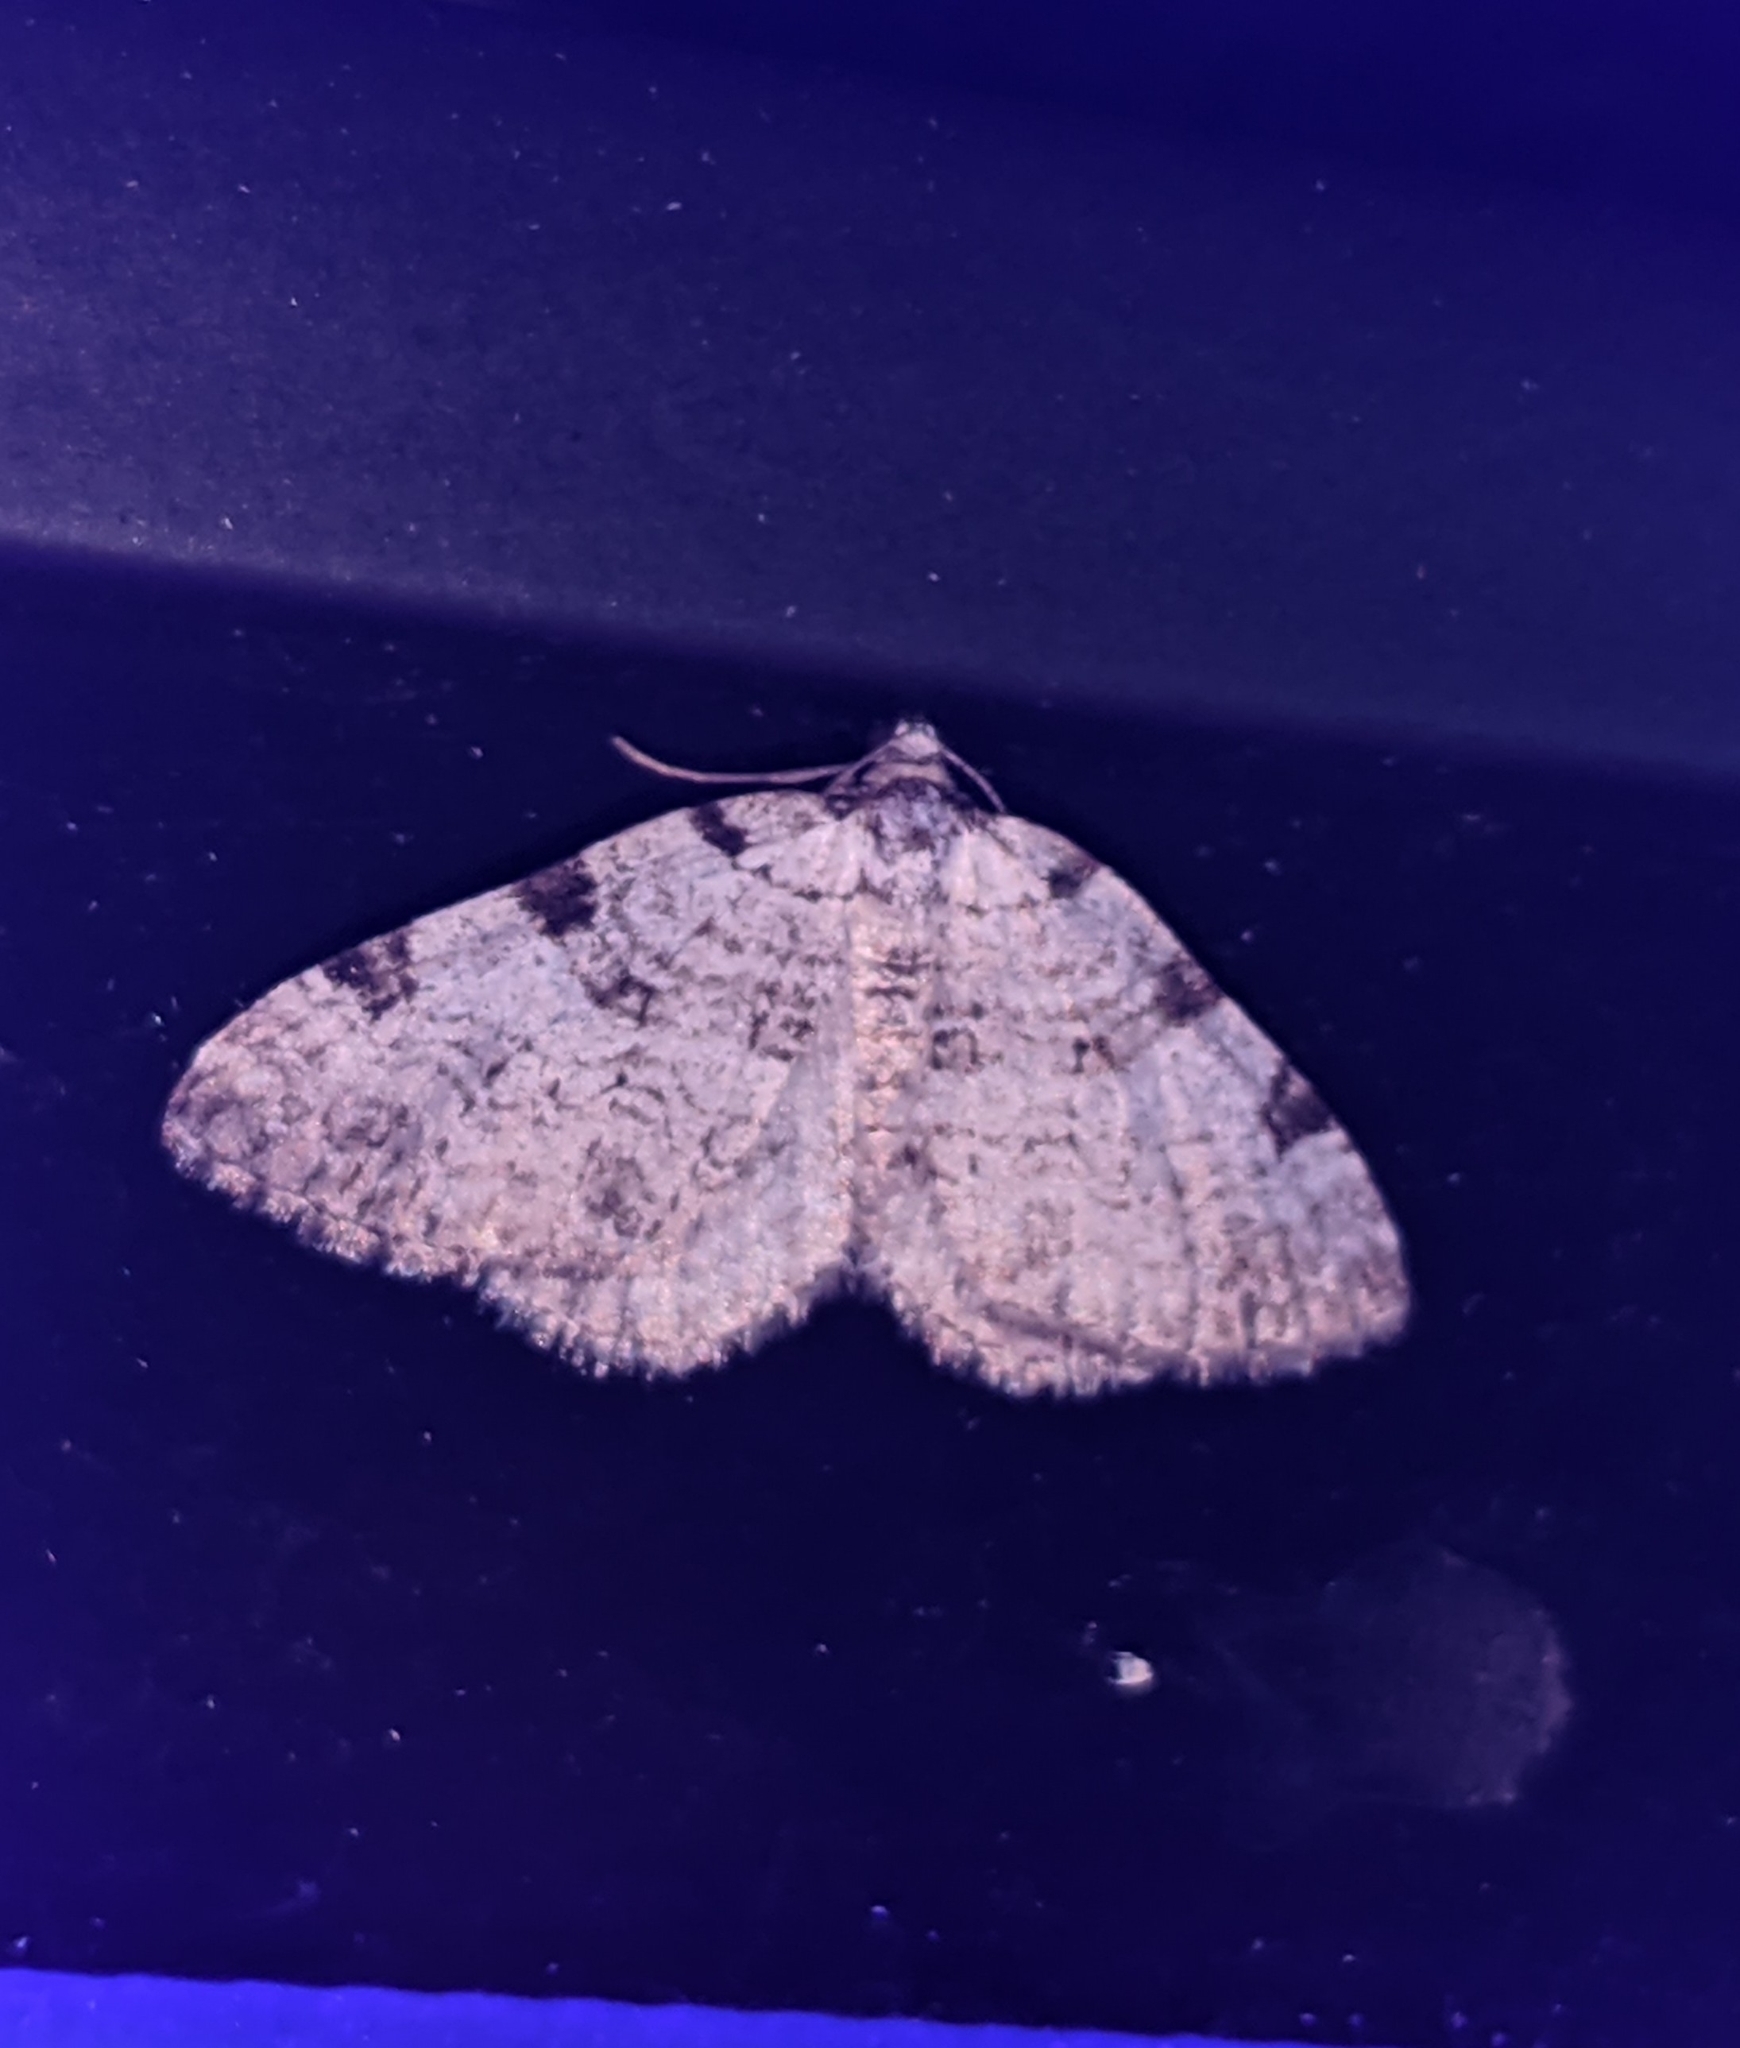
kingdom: Animalia
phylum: Arthropoda
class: Insecta
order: Lepidoptera
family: Geometridae
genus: Perizoma
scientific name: Perizoma costiguttata
